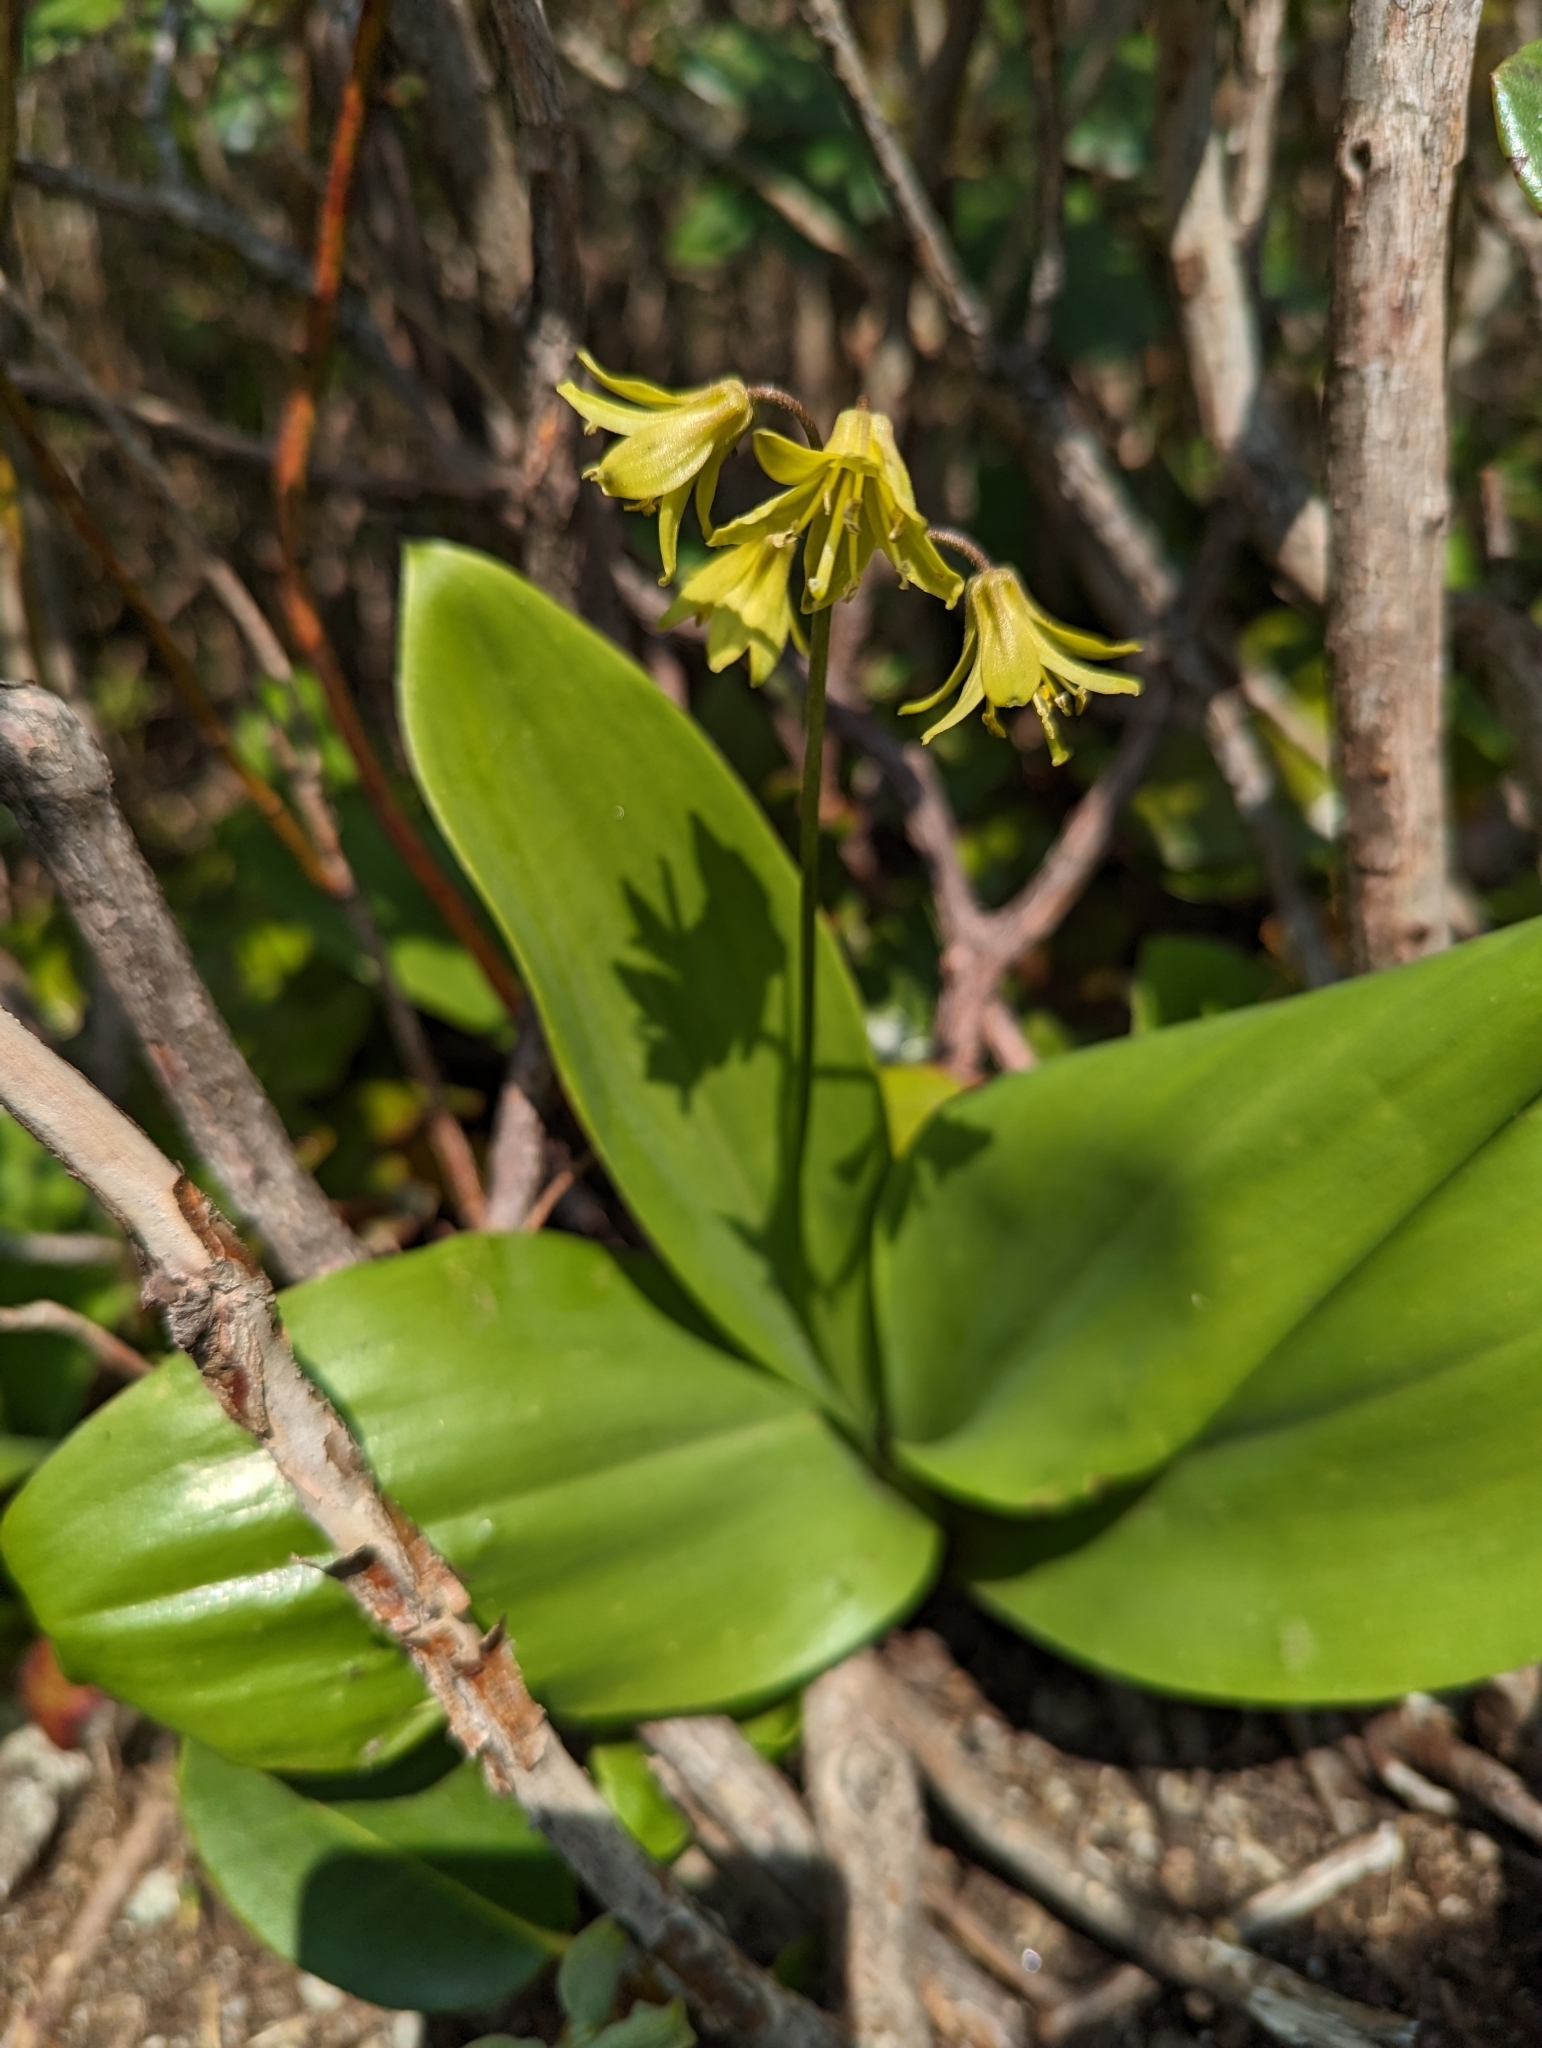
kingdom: Plantae
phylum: Tracheophyta
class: Liliopsida
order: Liliales
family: Liliaceae
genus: Clintonia
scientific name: Clintonia borealis
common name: Yellow clintonia
